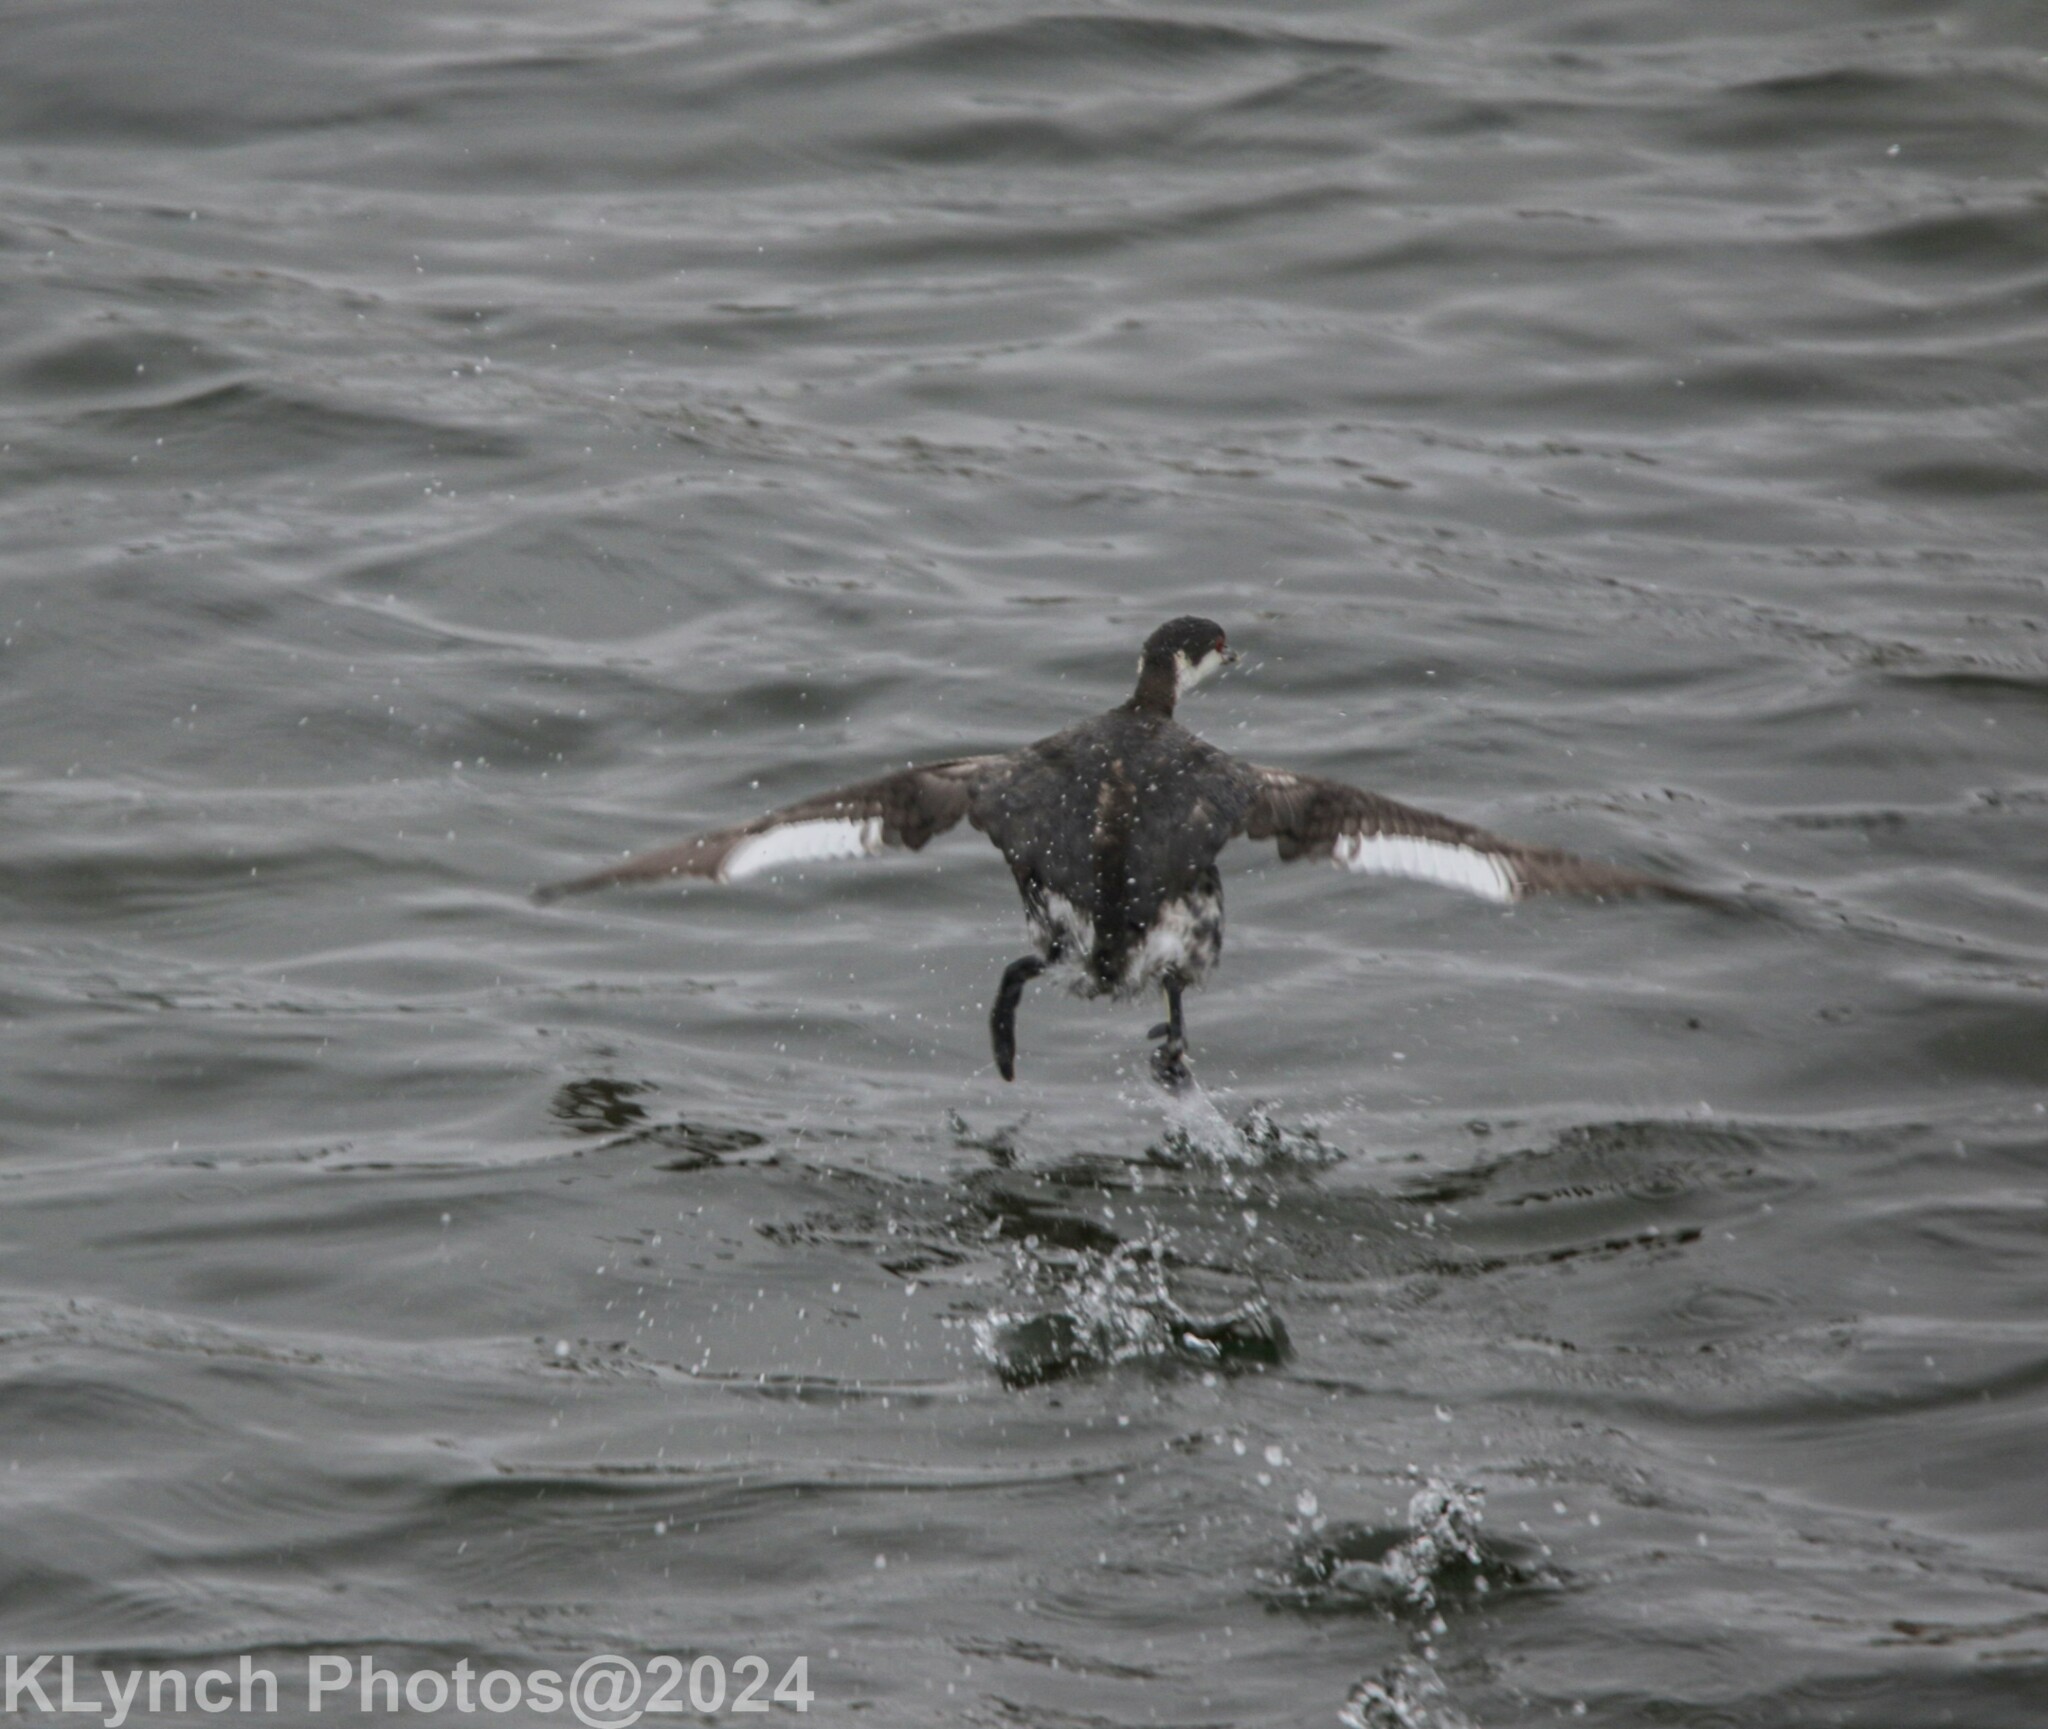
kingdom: Animalia
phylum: Chordata
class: Aves
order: Podicipediformes
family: Podicipedidae
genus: Podiceps
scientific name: Podiceps auritus
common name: Horned grebe
